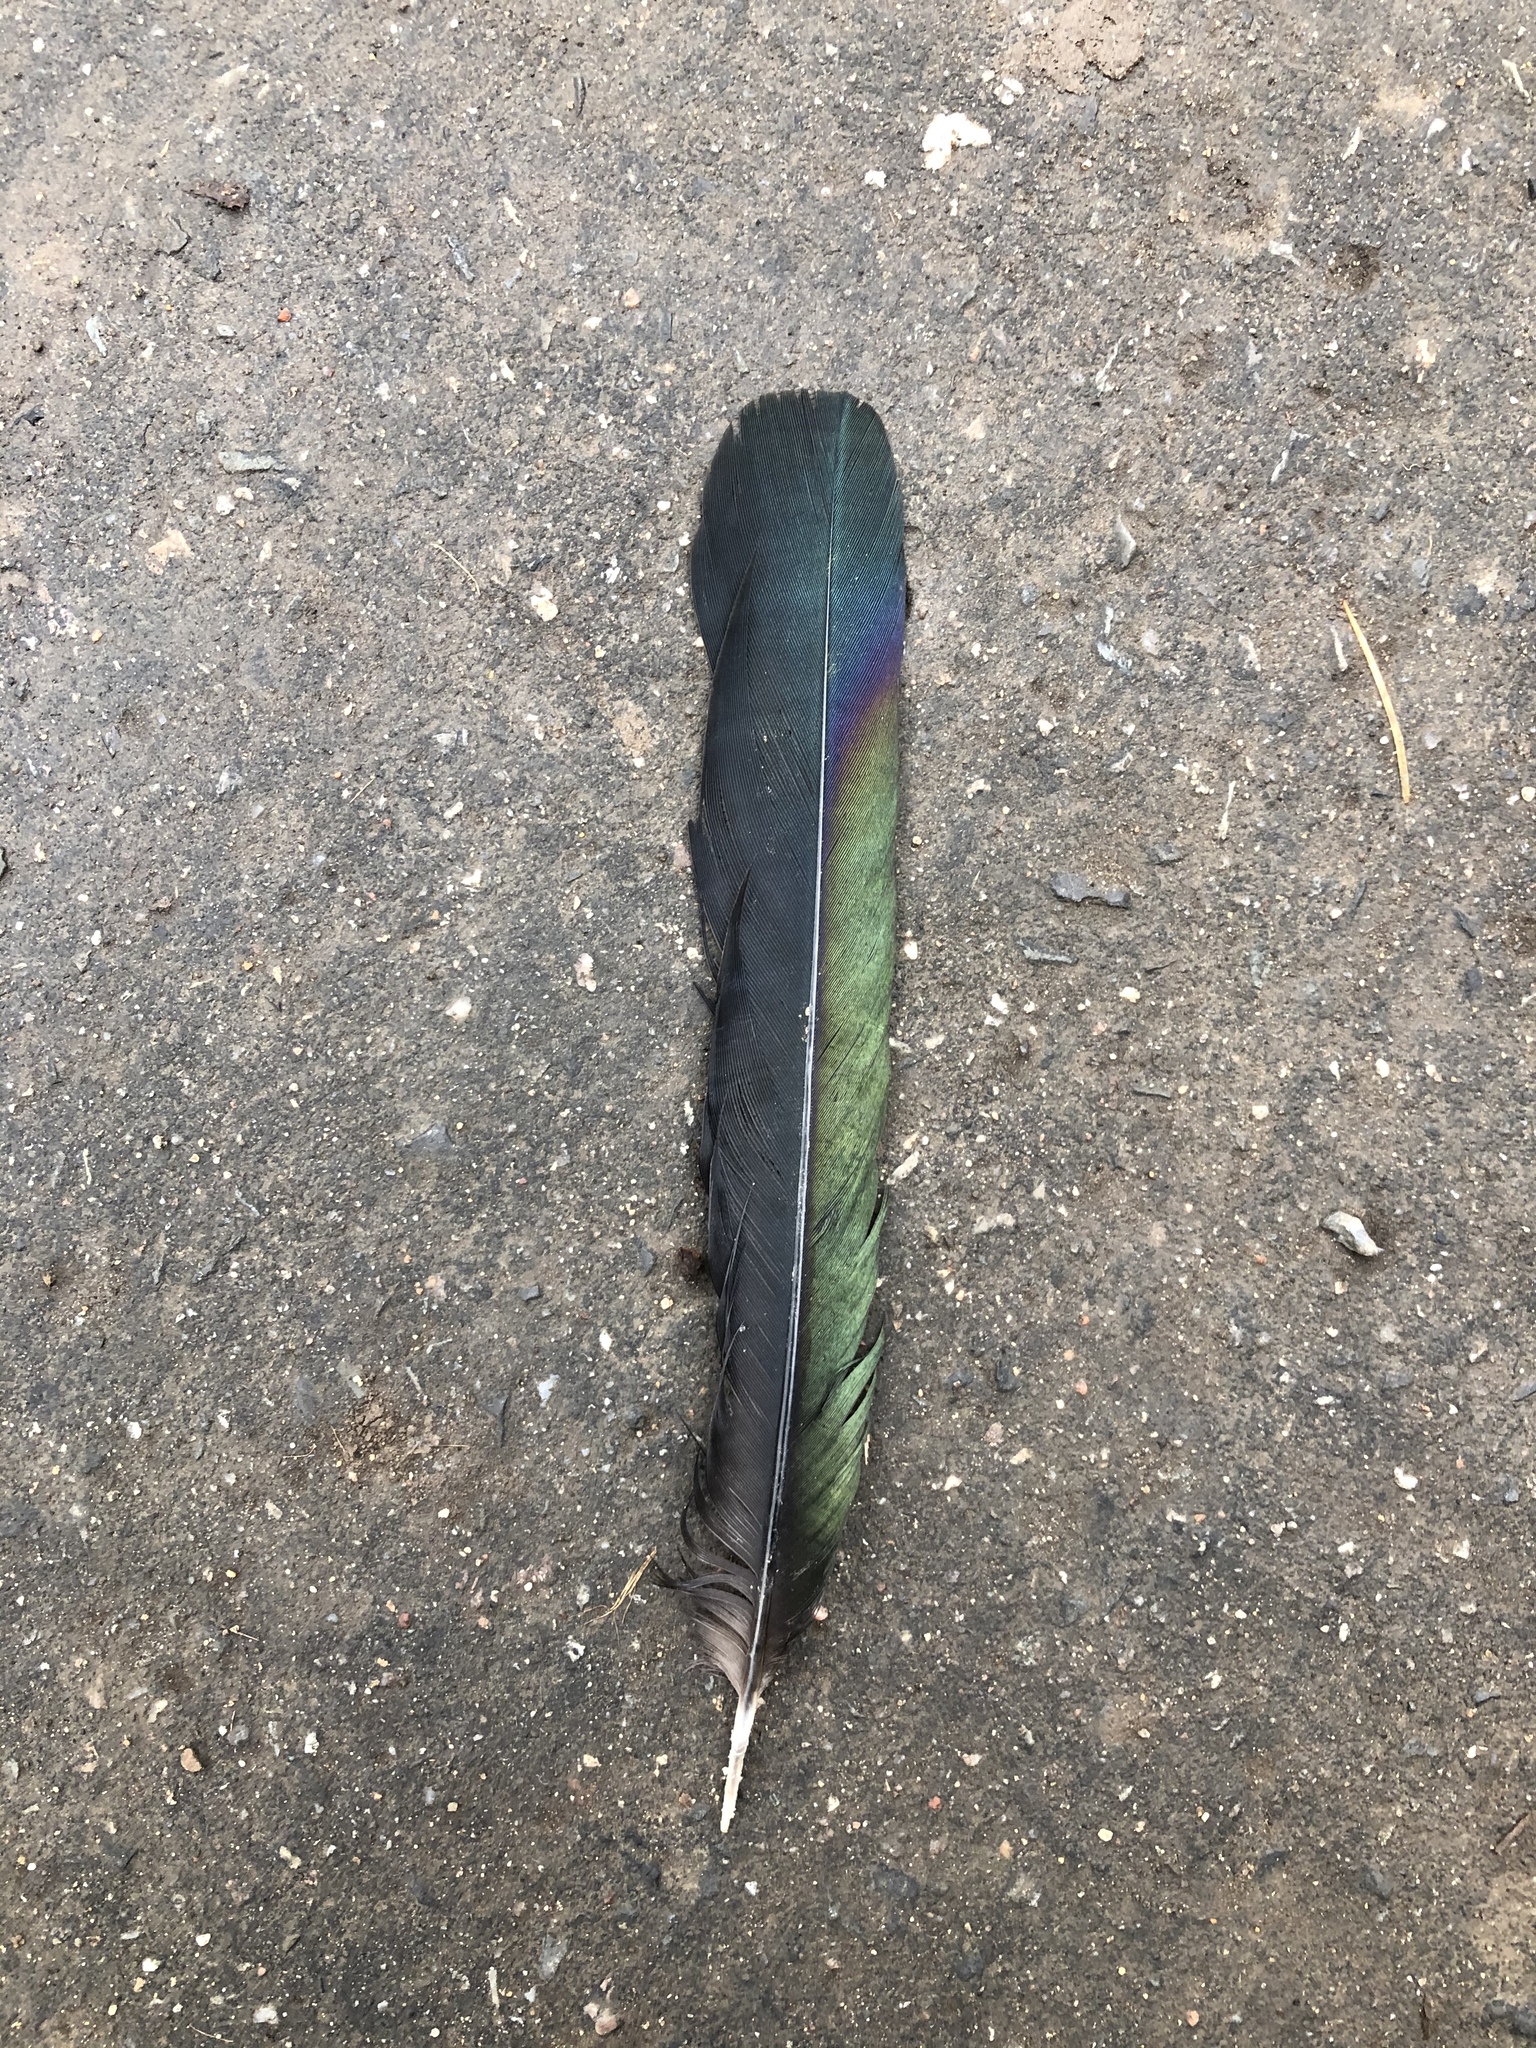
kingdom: Animalia
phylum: Chordata
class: Aves
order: Passeriformes
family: Corvidae
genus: Pica
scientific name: Pica pica
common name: Eurasian magpie
